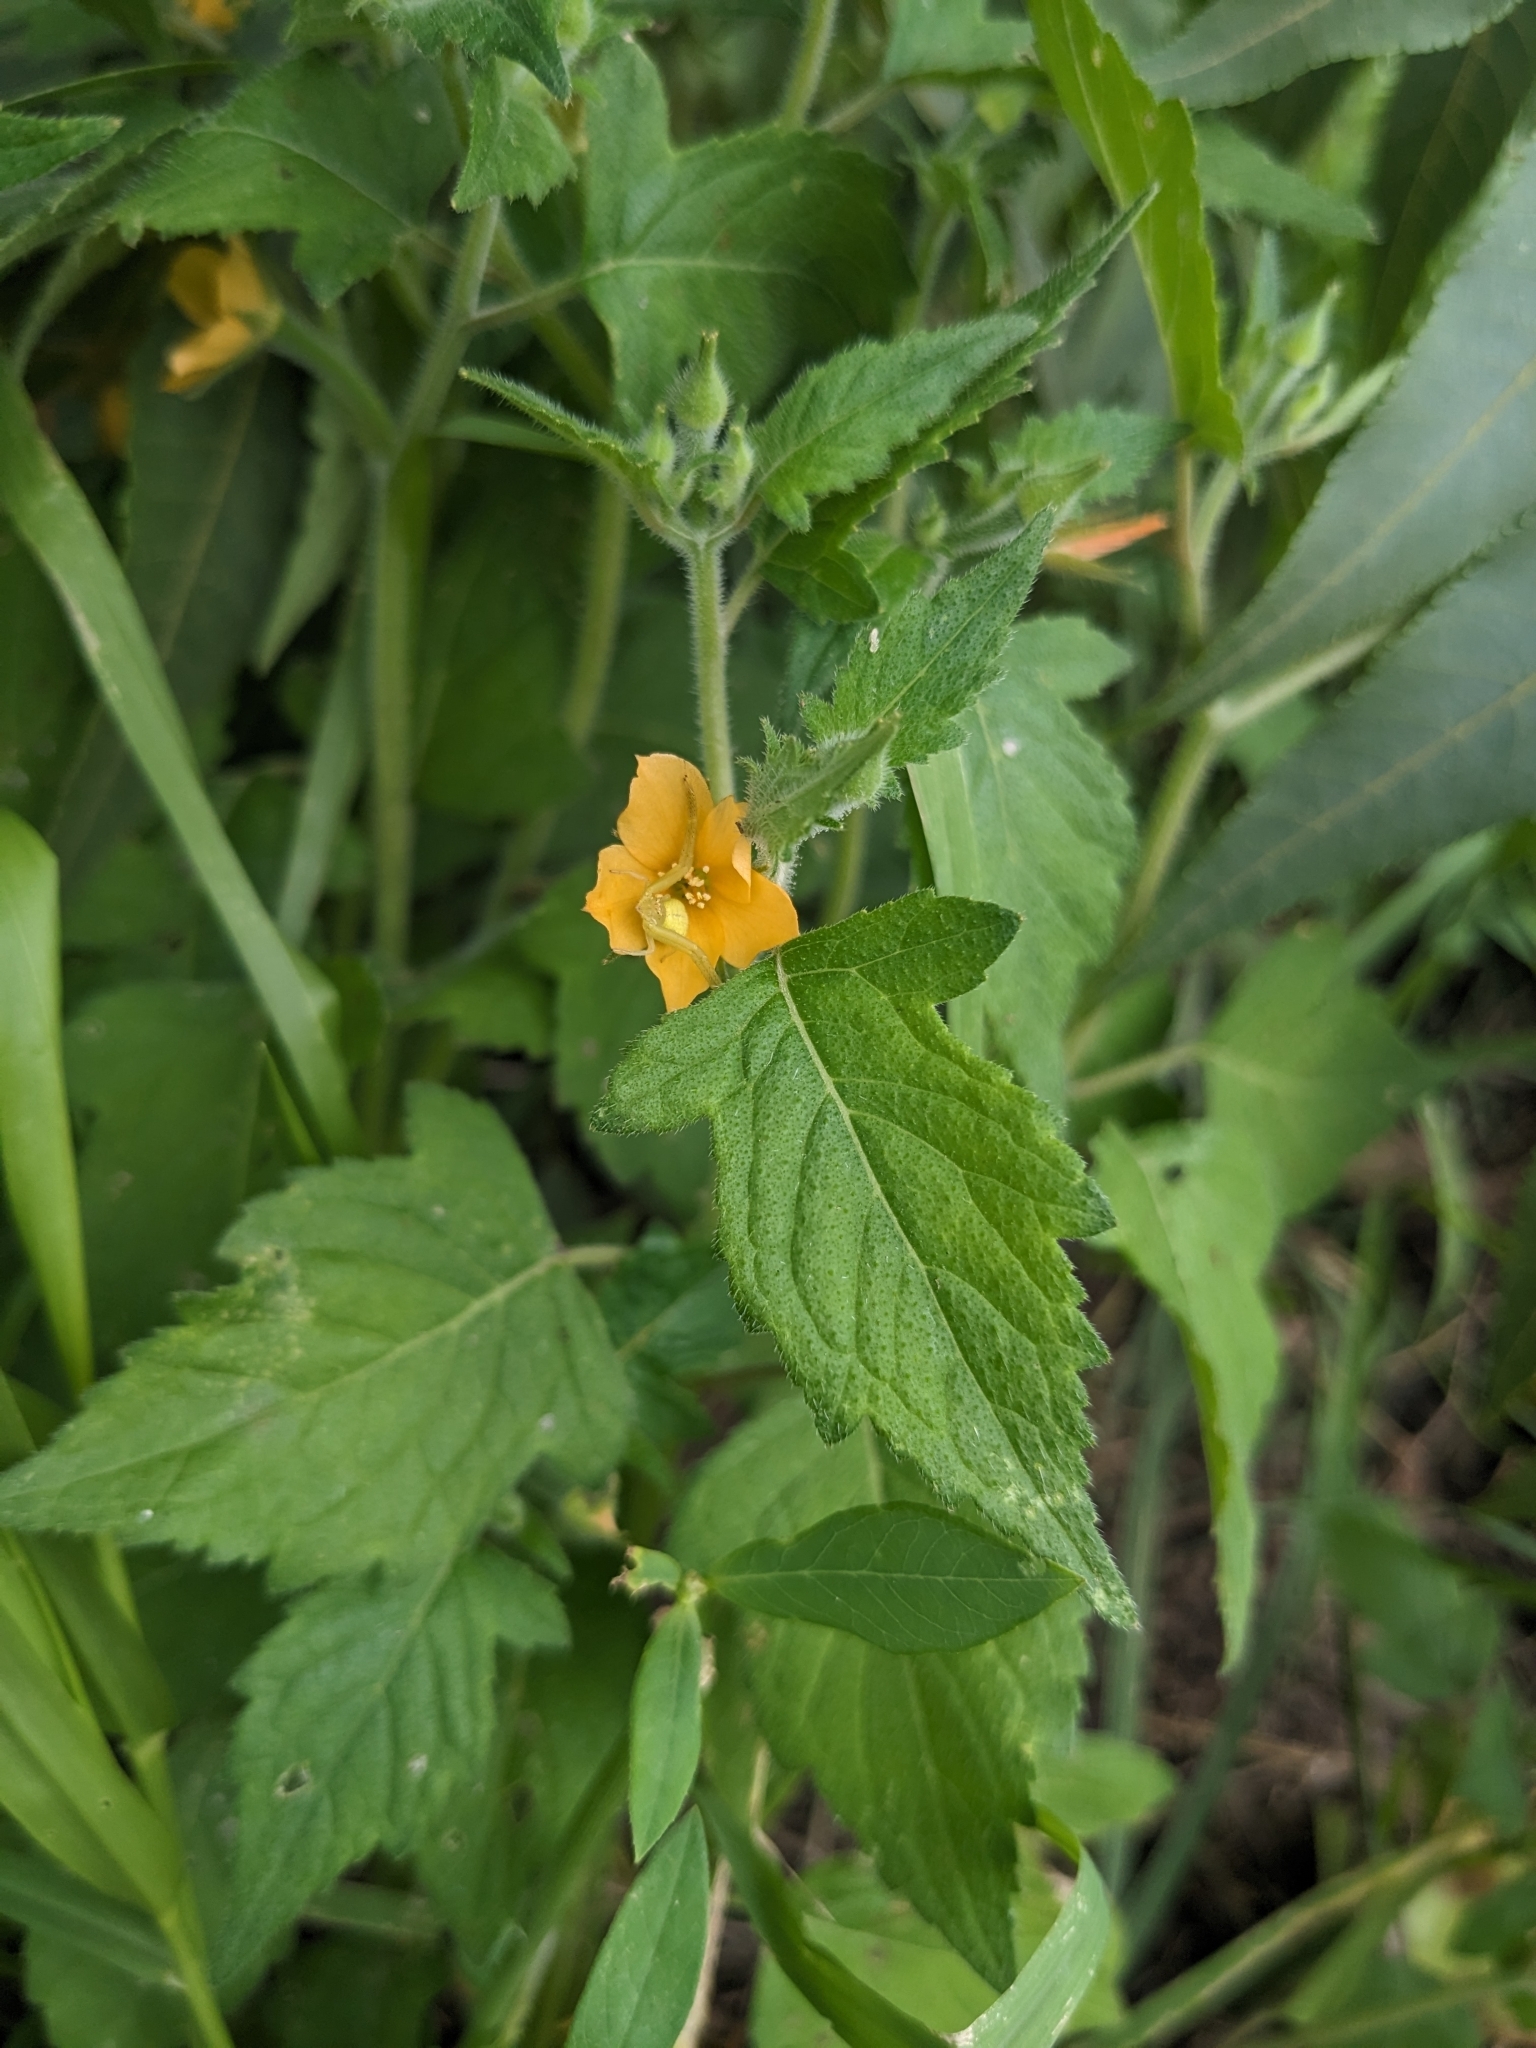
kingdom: Plantae
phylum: Tracheophyta
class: Magnoliopsida
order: Cornales
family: Loasaceae
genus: Mentzelia
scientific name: Mentzelia aspera
